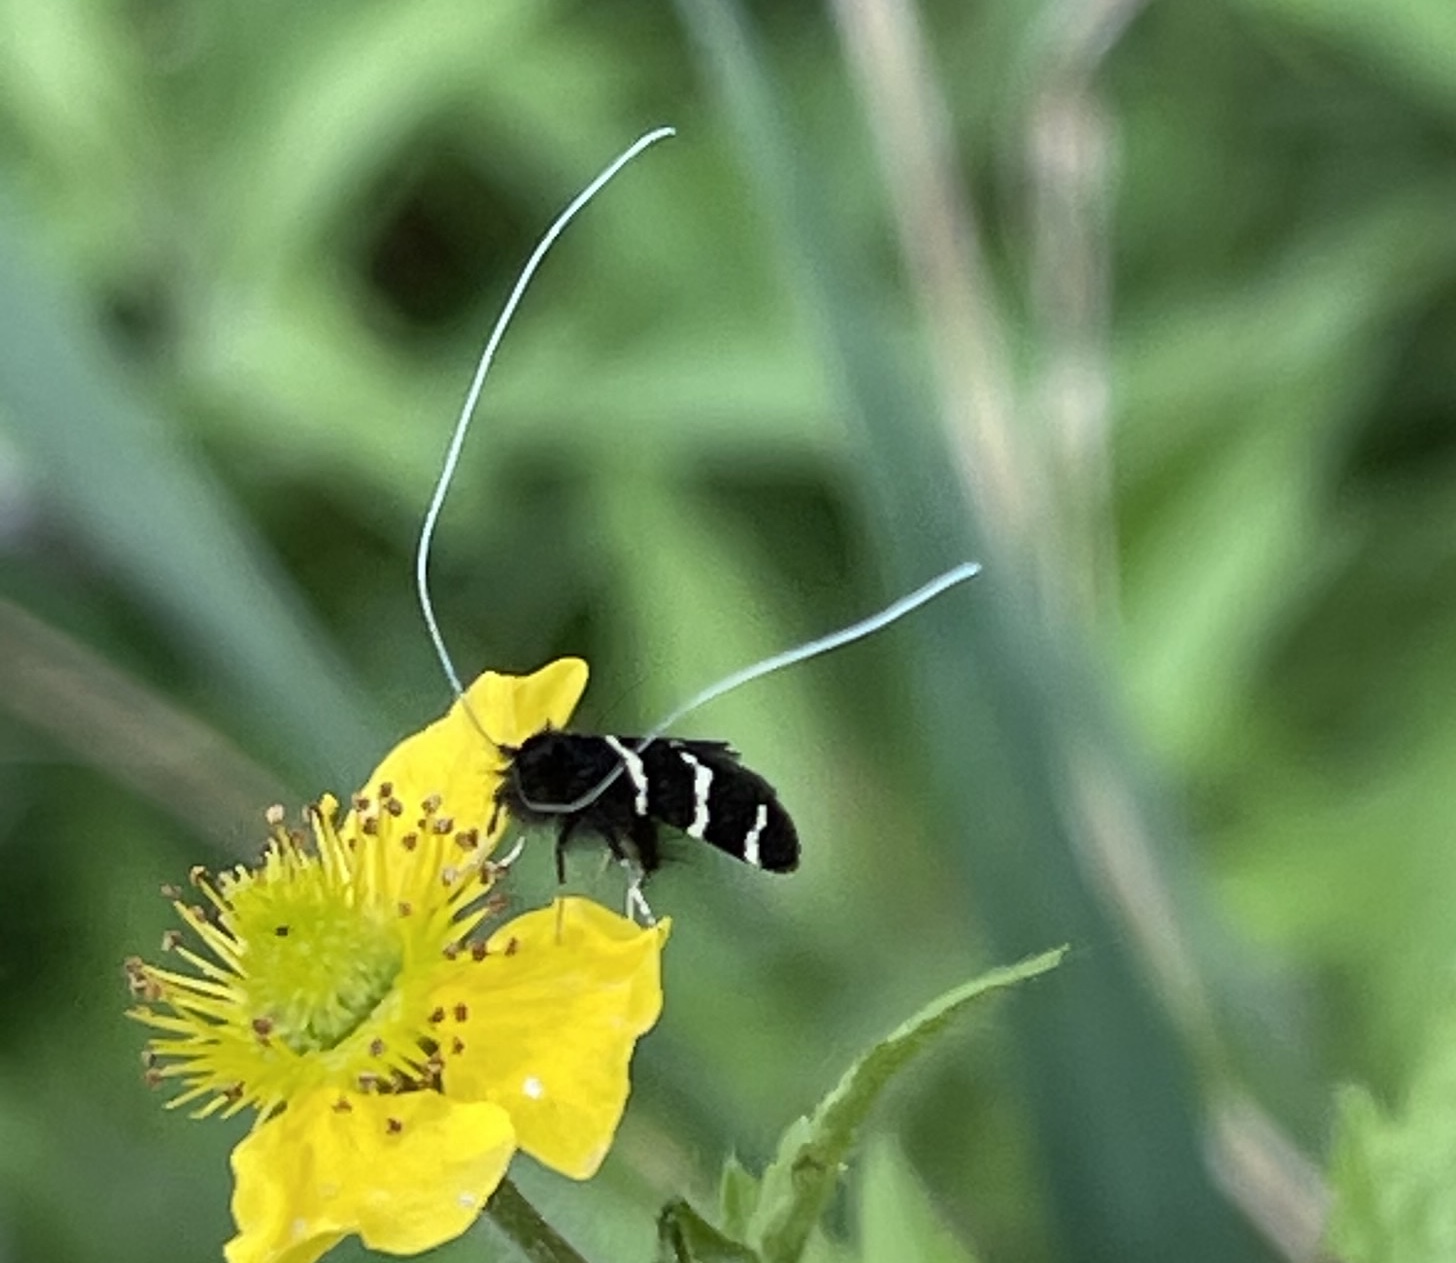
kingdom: Animalia
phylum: Arthropoda
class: Insecta
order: Lepidoptera
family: Adelidae
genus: Adela
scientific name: Adela trigrapha
